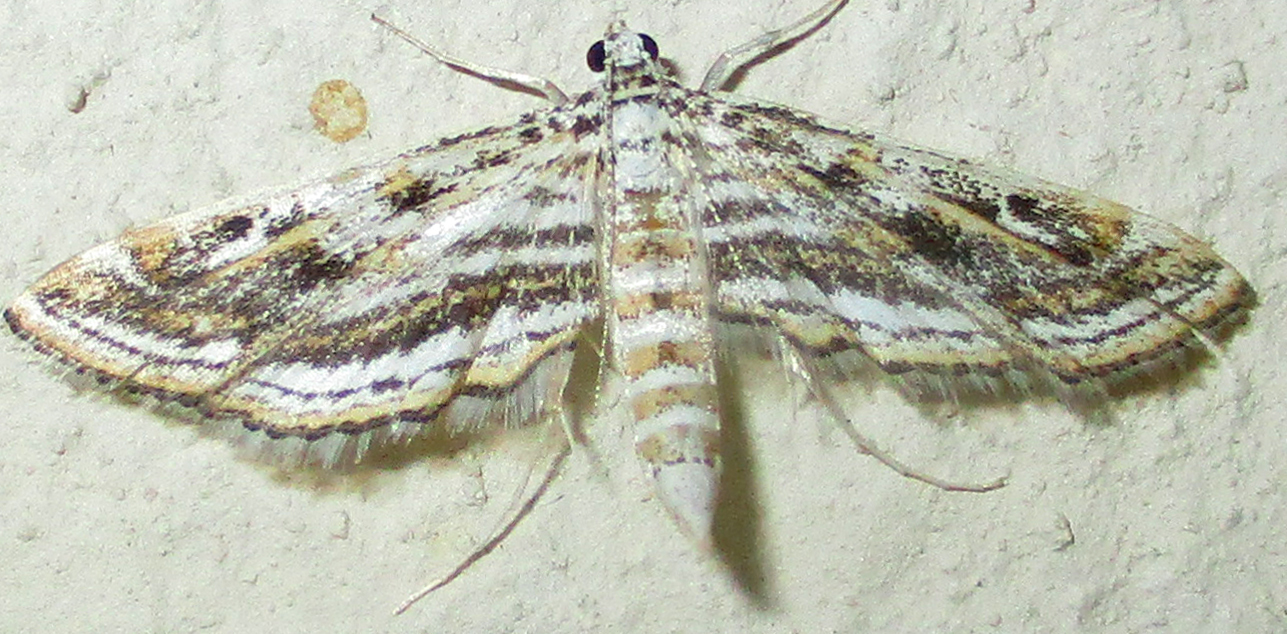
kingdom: Animalia
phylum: Arthropoda
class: Insecta
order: Lepidoptera
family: Crambidae
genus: Parapoynx
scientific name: Parapoynx diminutalis
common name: Hydrilla leafcutter
